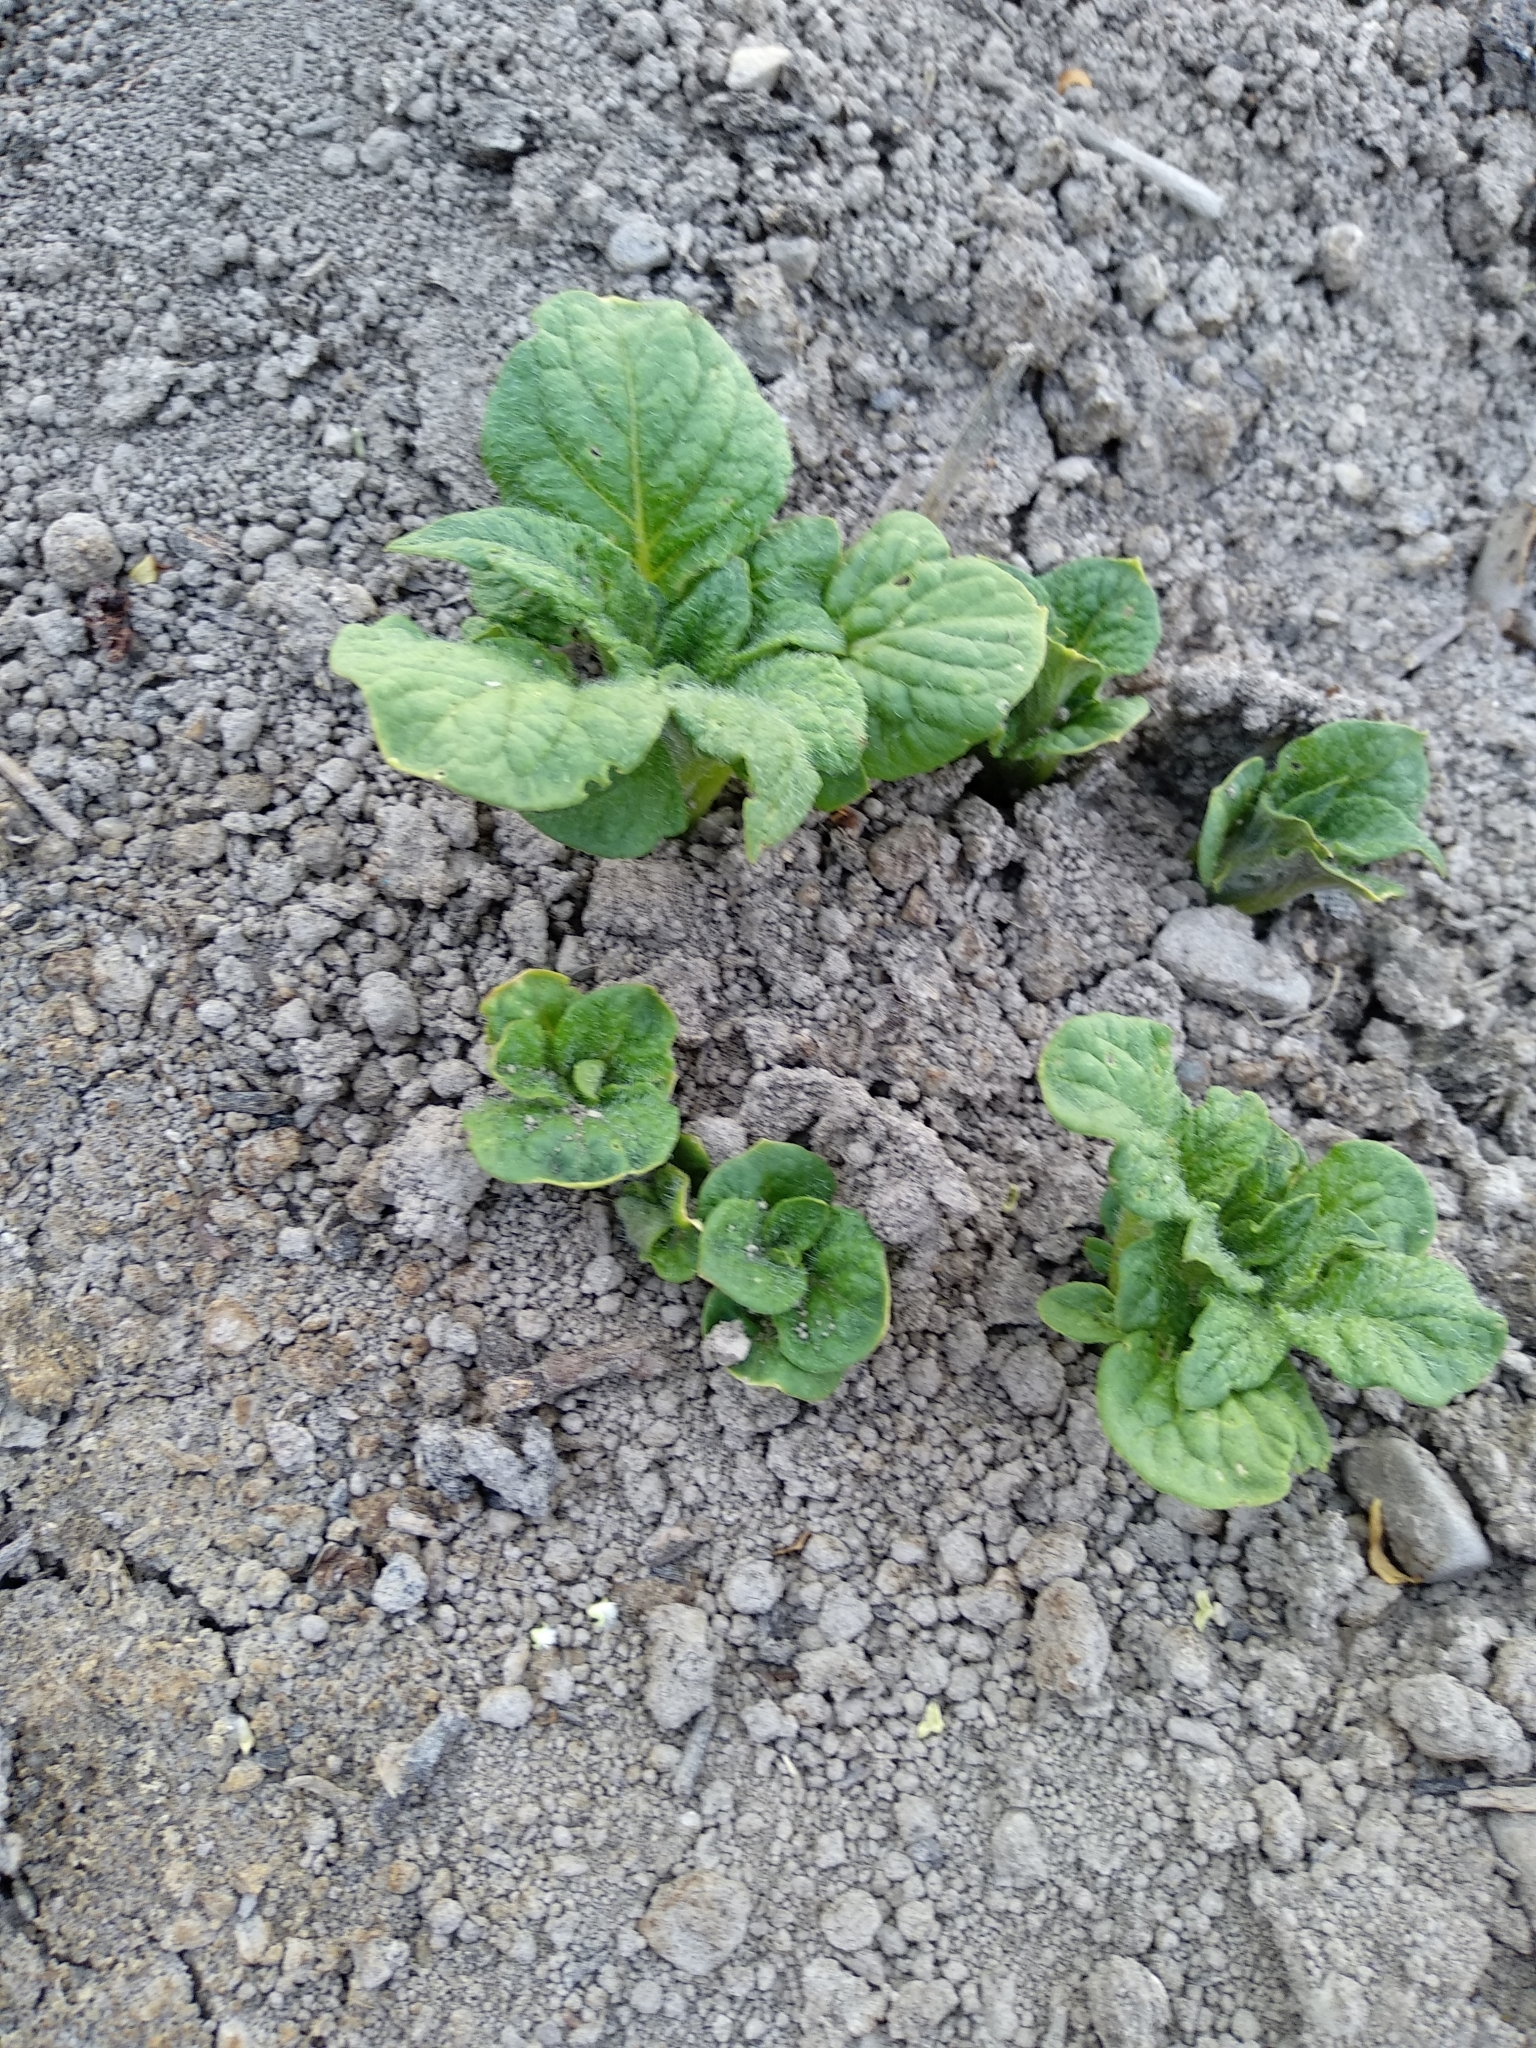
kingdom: Plantae
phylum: Tracheophyta
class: Magnoliopsida
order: Solanales
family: Solanaceae
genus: Solanum
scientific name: Solanum tuberosum
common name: Potato
